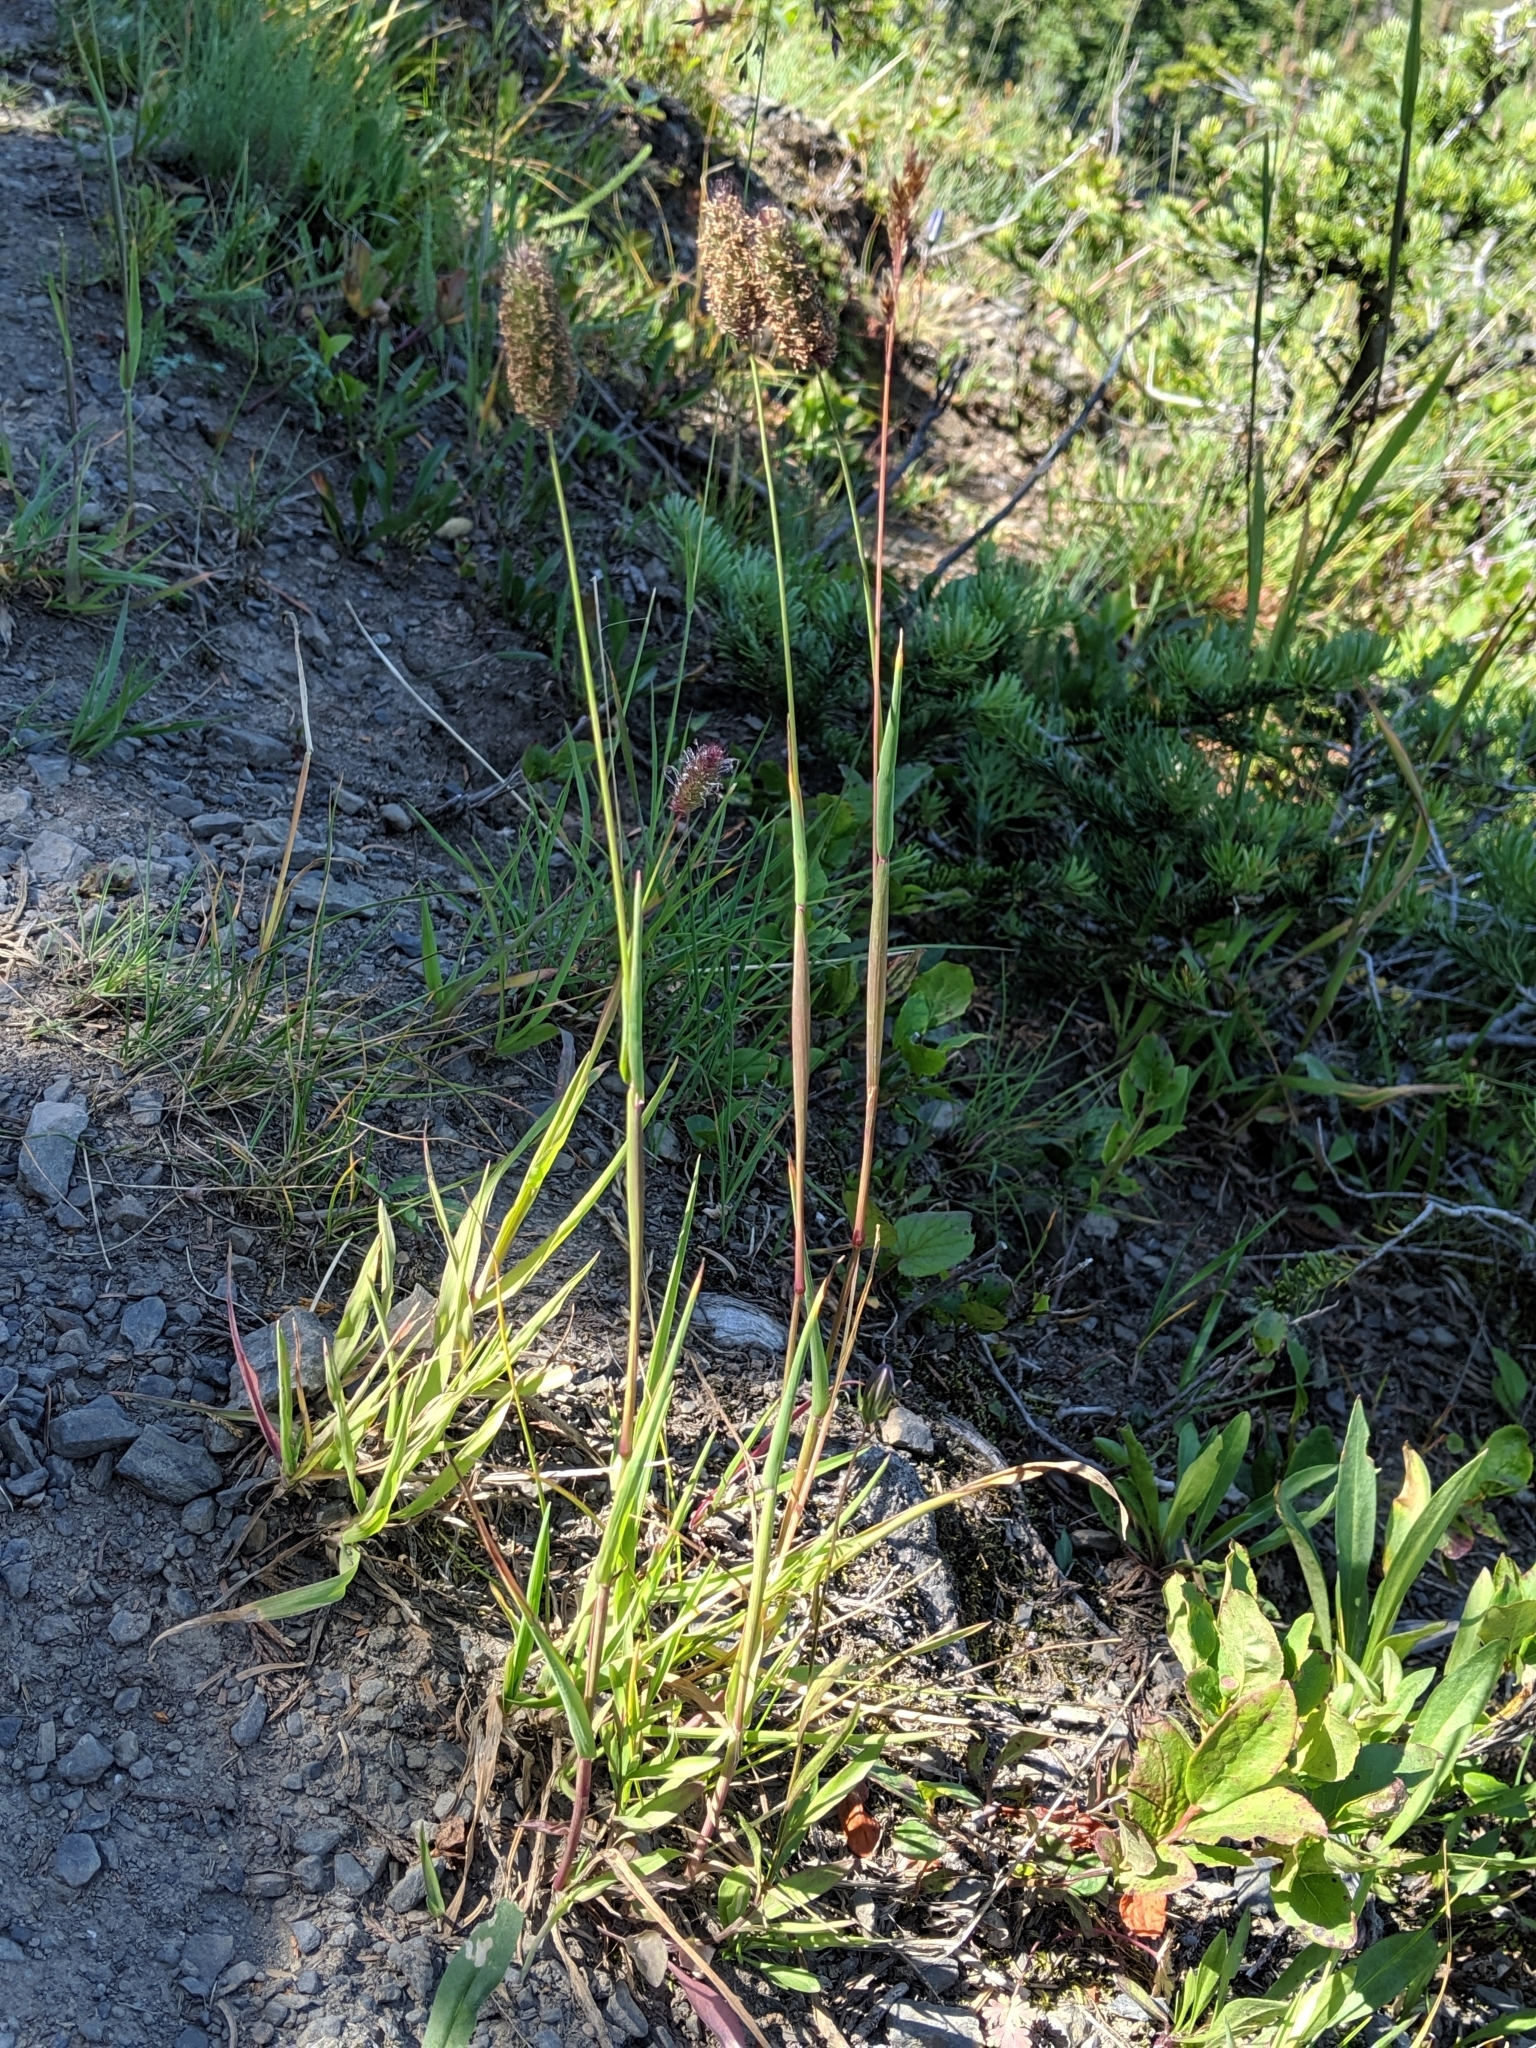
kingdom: Plantae
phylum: Tracheophyta
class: Liliopsida
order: Poales
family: Poaceae
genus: Phleum
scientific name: Phleum alpinum
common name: Alpine cat's-tail
